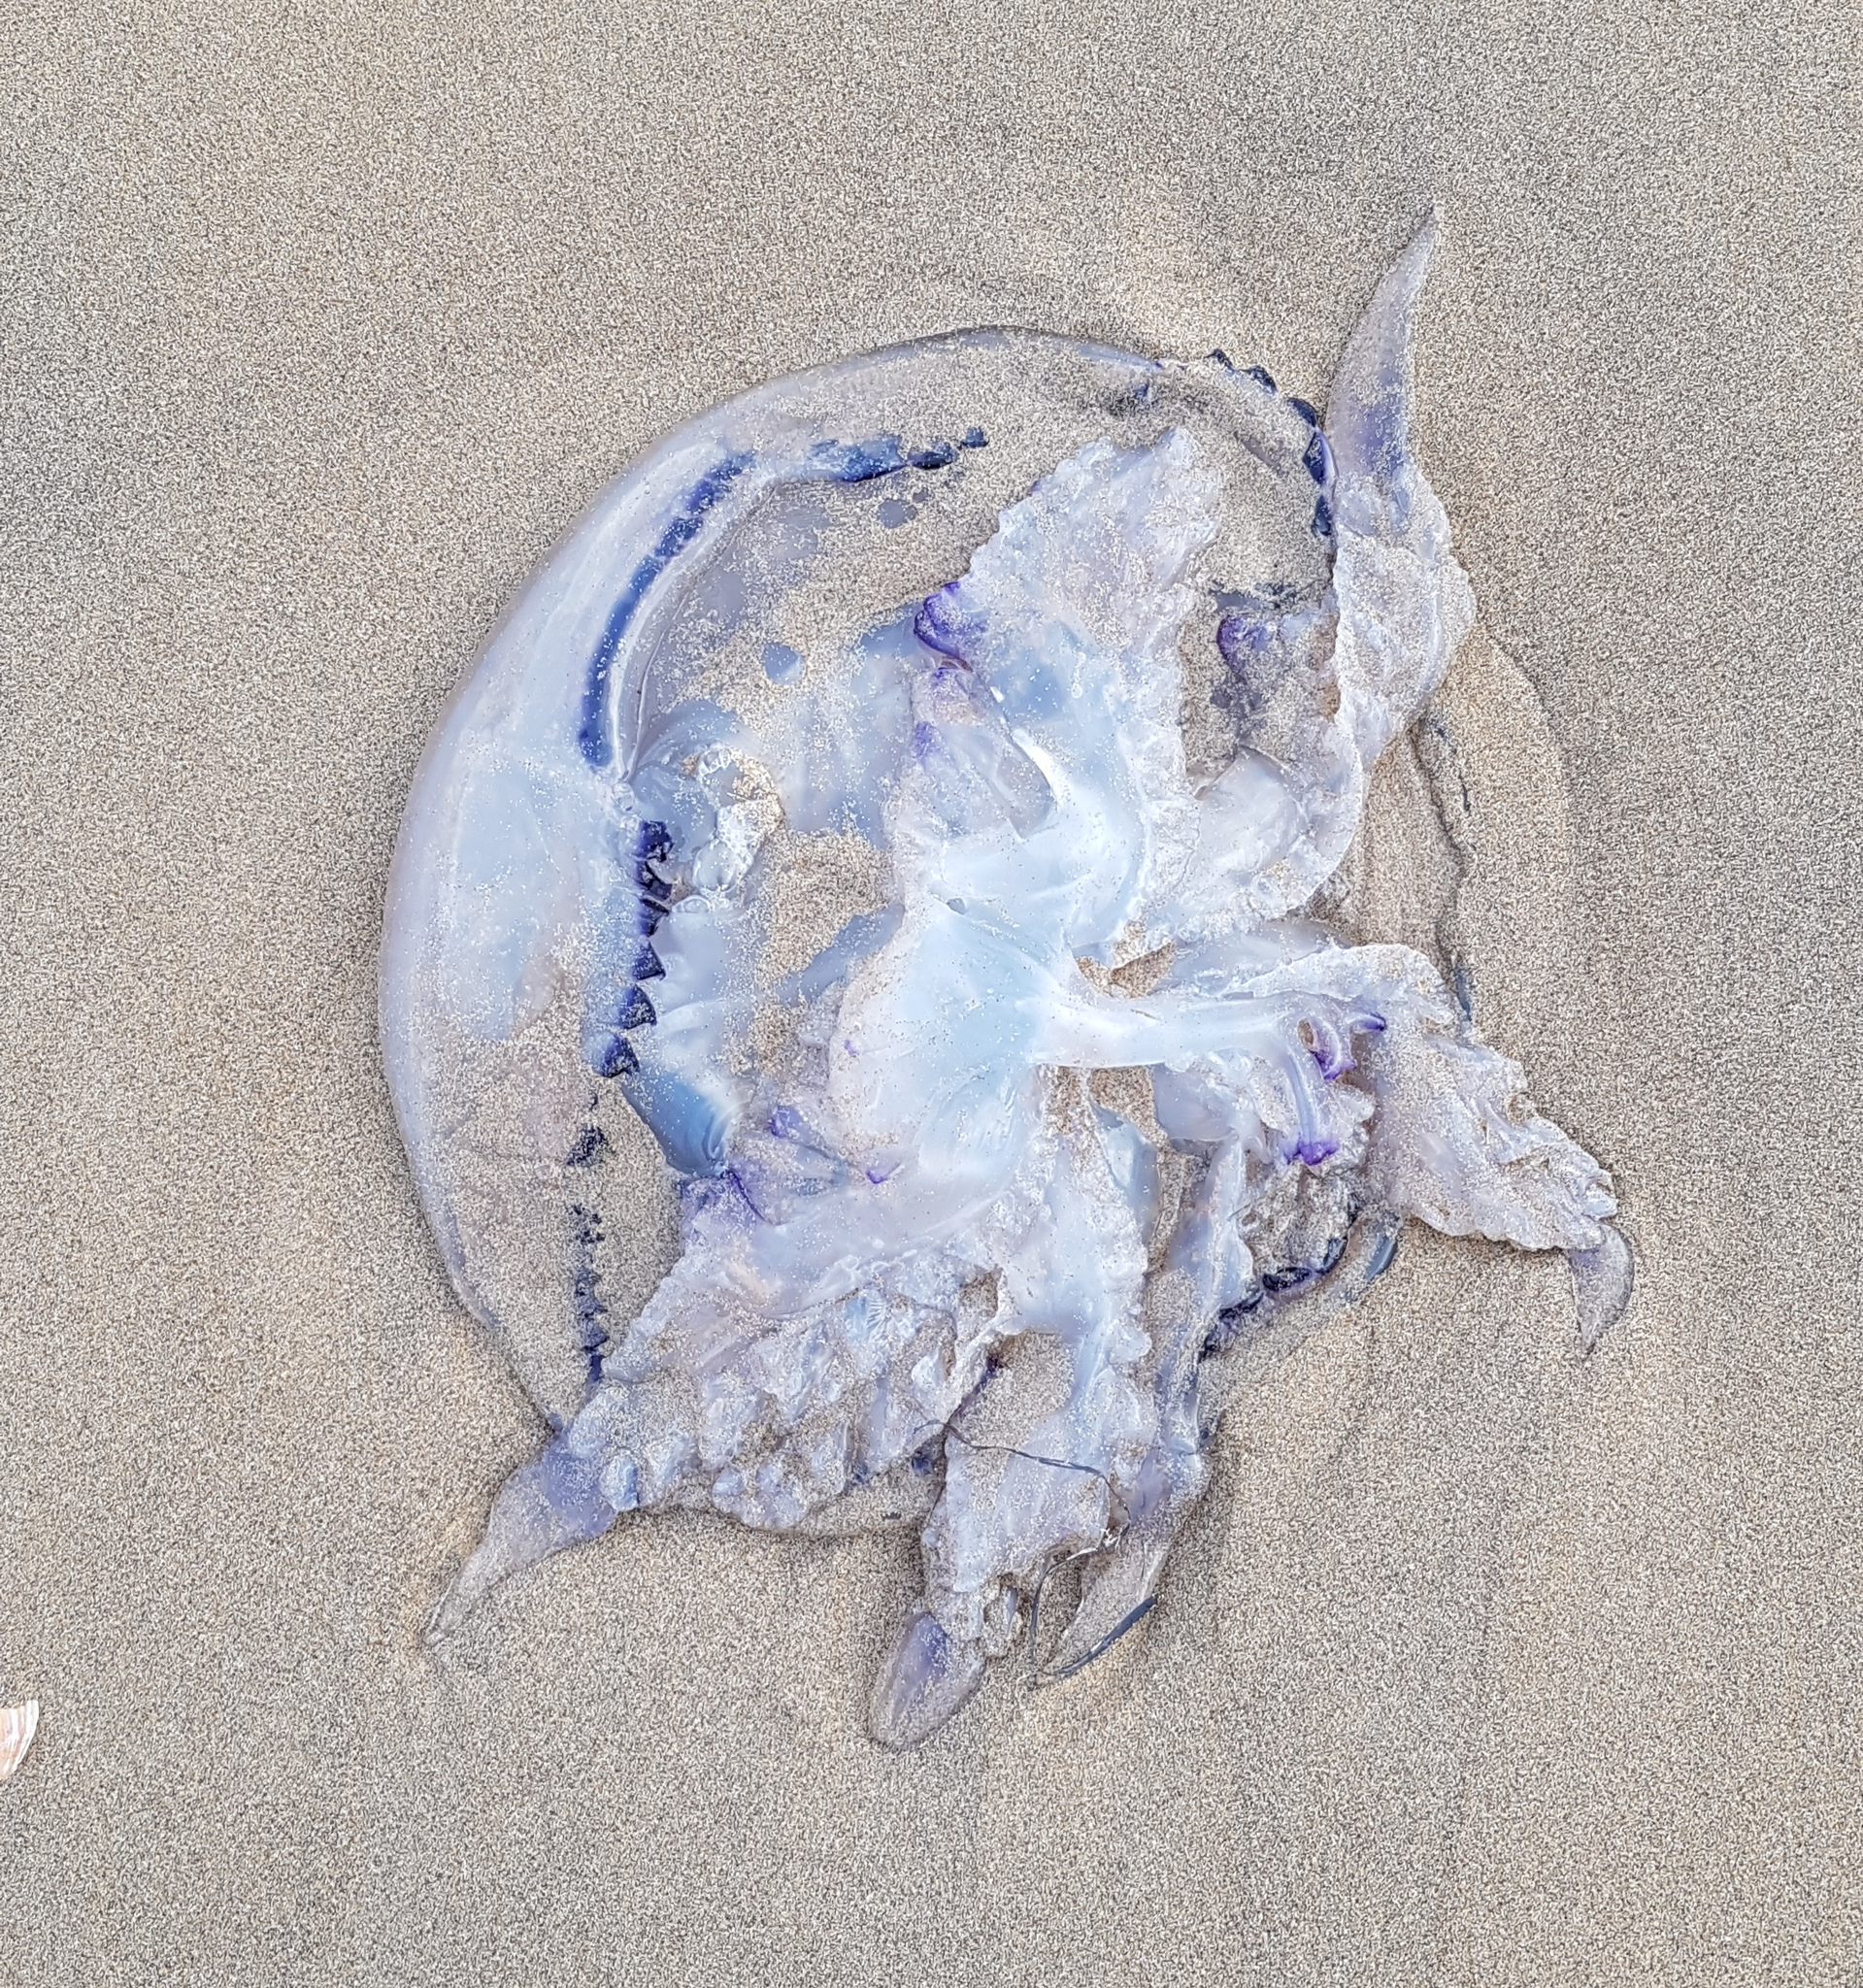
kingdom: Animalia
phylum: Cnidaria
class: Scyphozoa
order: Rhizostomeae
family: Rhizostomatidae
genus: Rhizostoma
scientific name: Rhizostoma pulmo
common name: Barrel jellyfish
